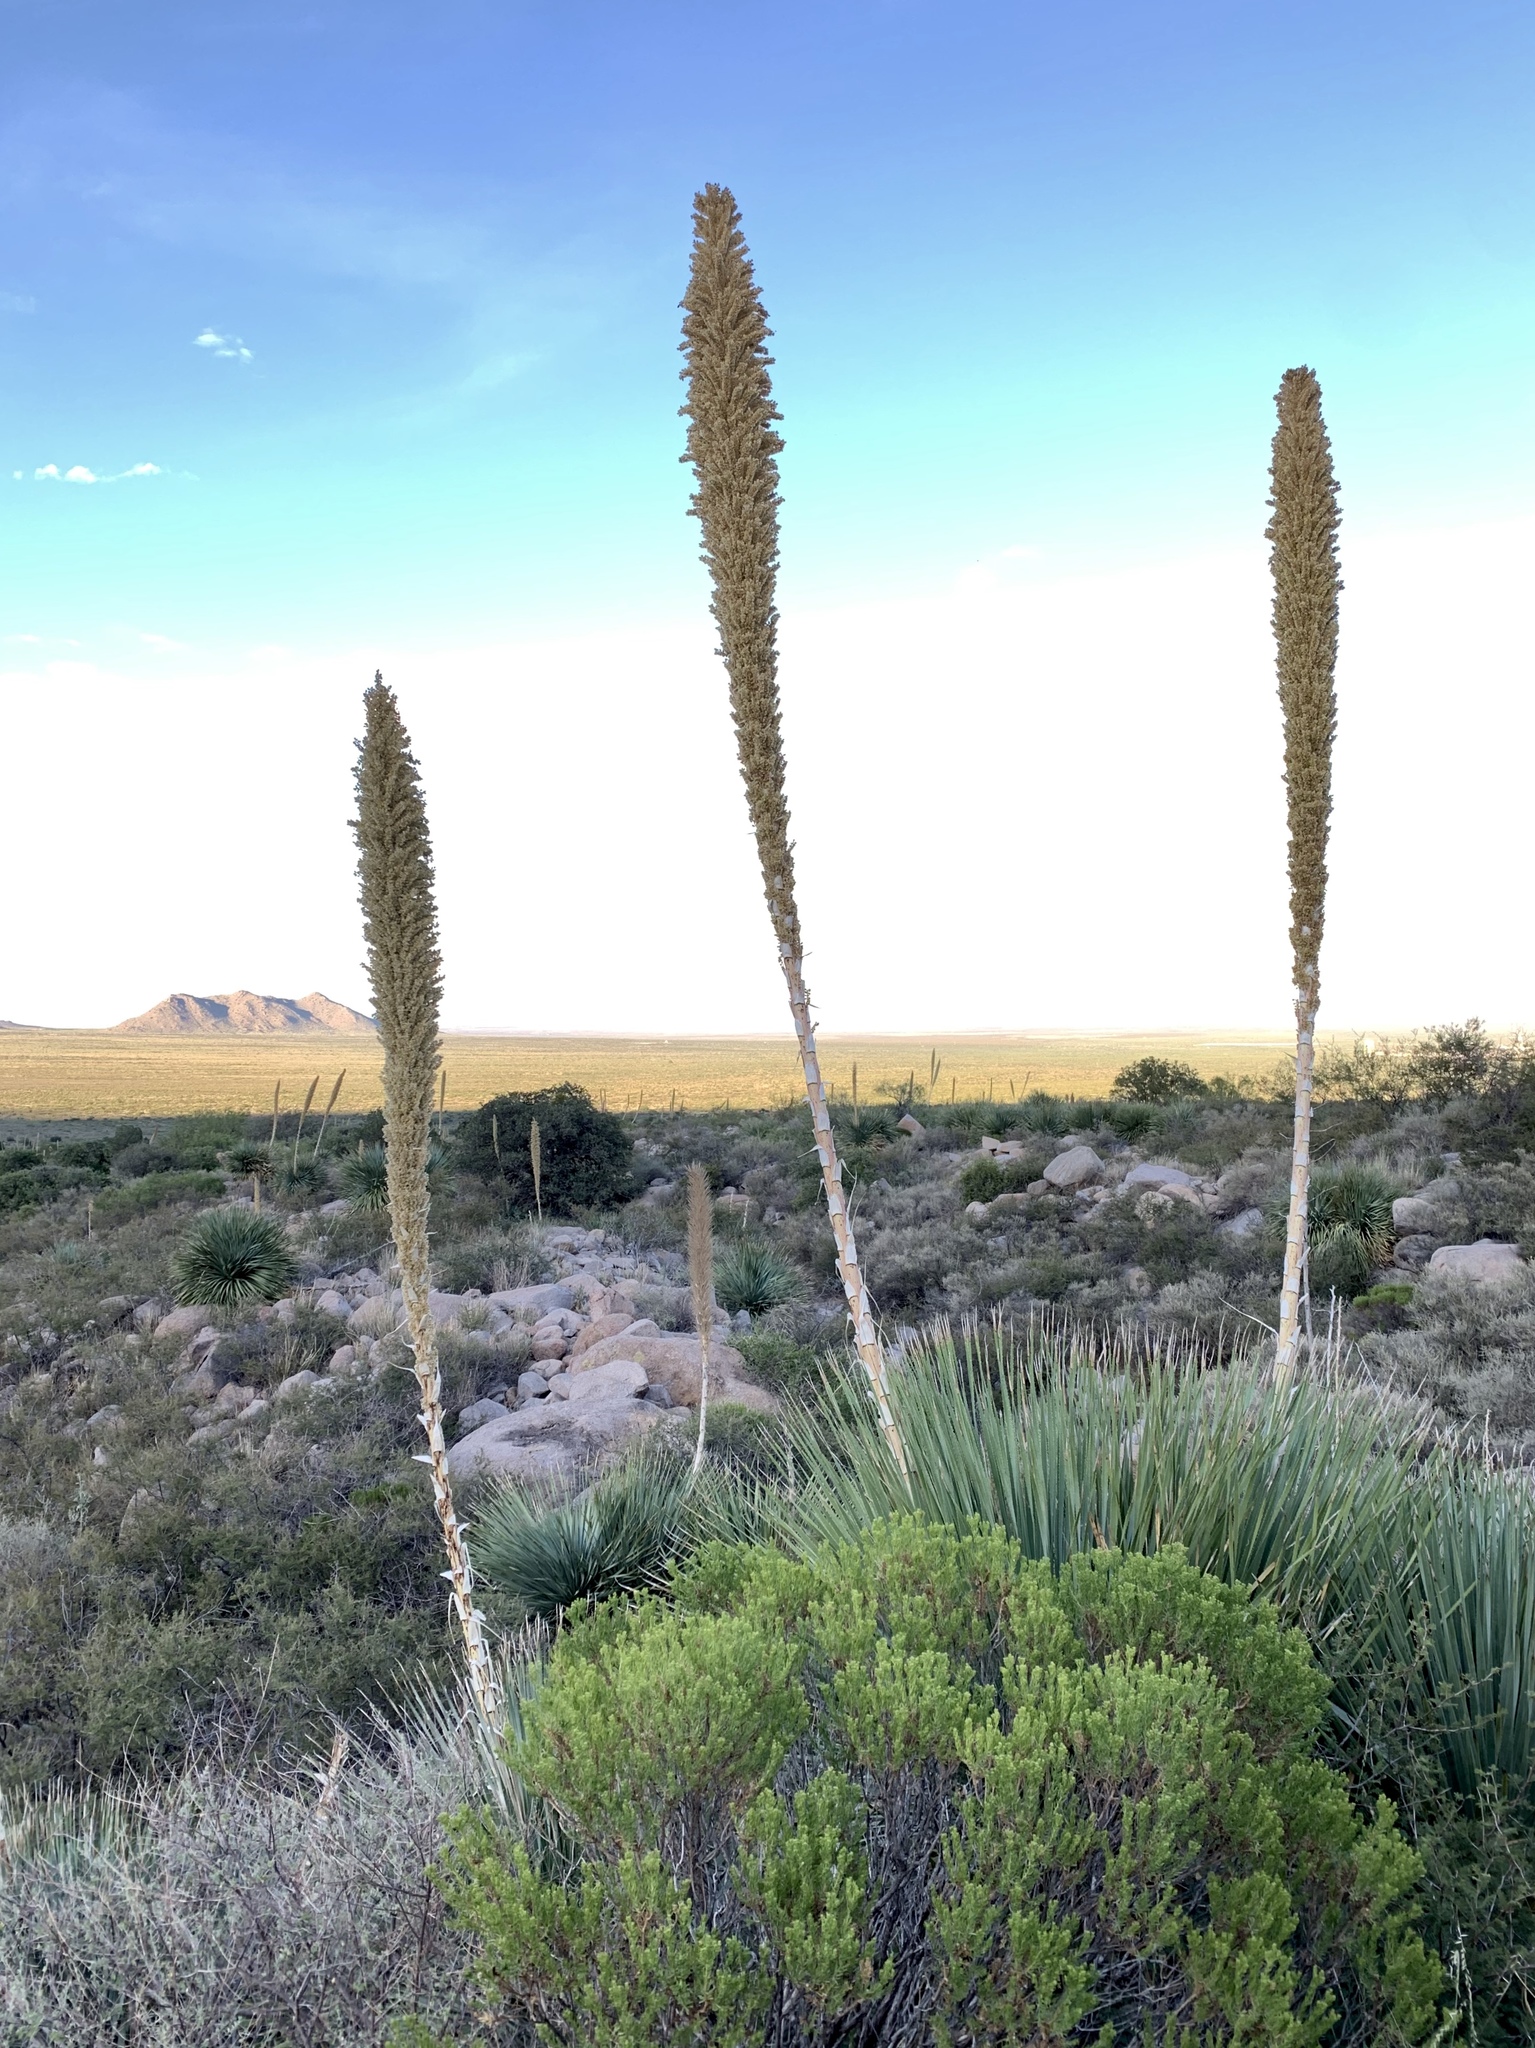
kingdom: Plantae
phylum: Tracheophyta
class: Liliopsida
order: Asparagales
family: Asparagaceae
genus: Dasylirion
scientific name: Dasylirion wheeleri
